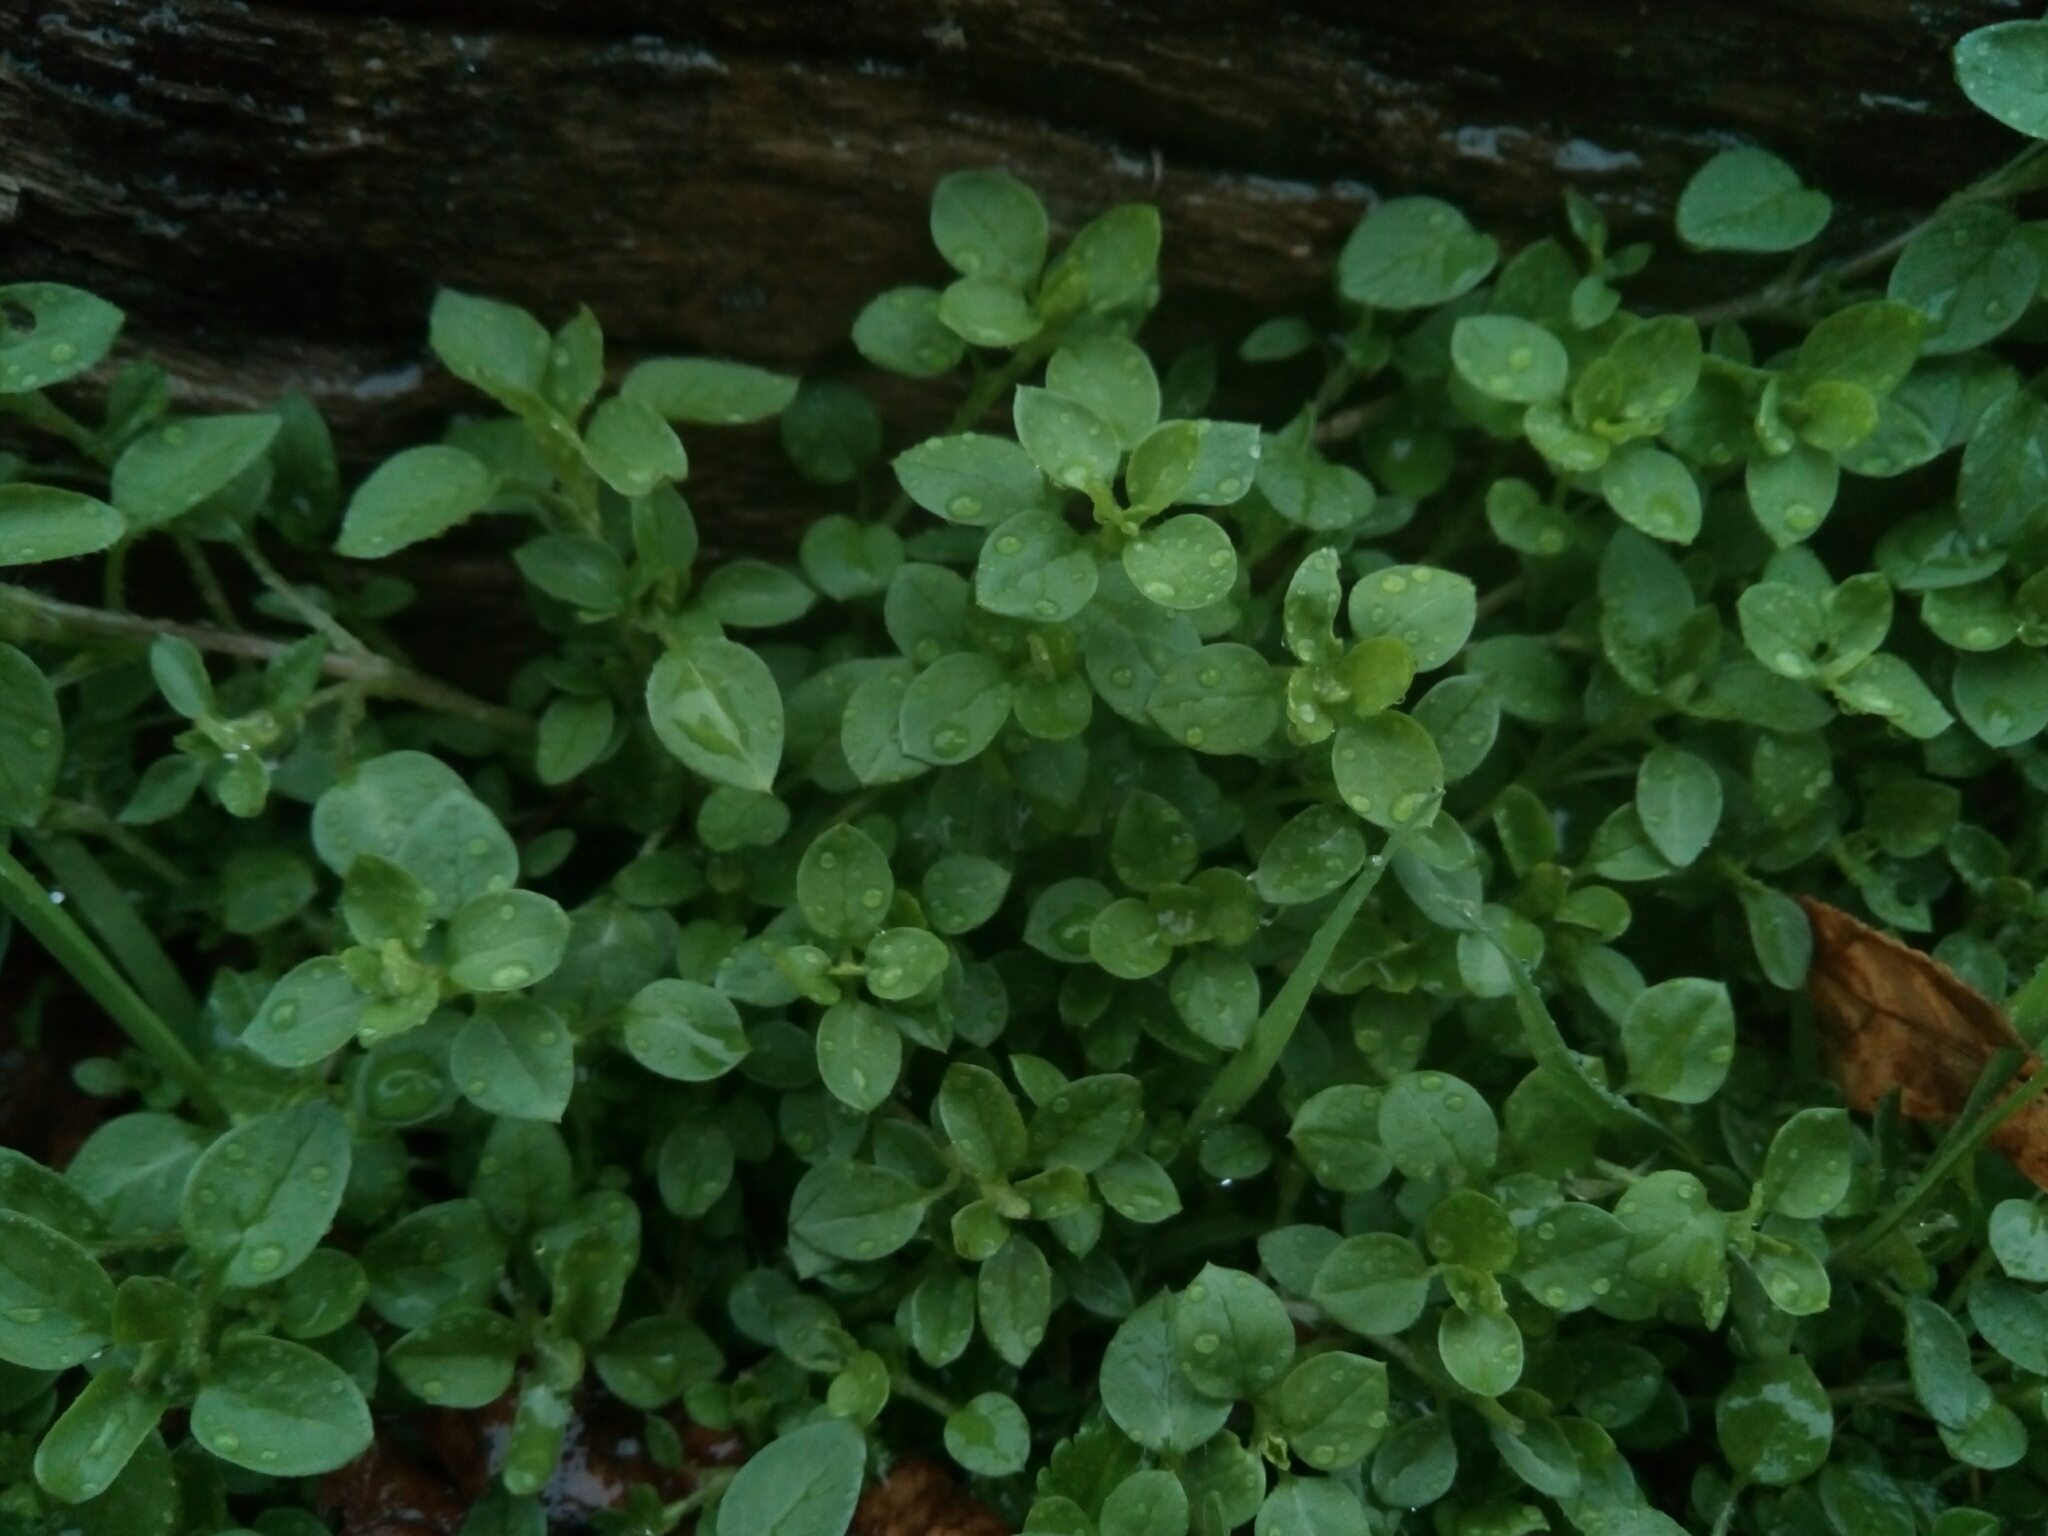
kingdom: Plantae
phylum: Tracheophyta
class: Magnoliopsida
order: Caryophyllales
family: Caryophyllaceae
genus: Stellaria
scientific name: Stellaria media
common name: Common chickweed
